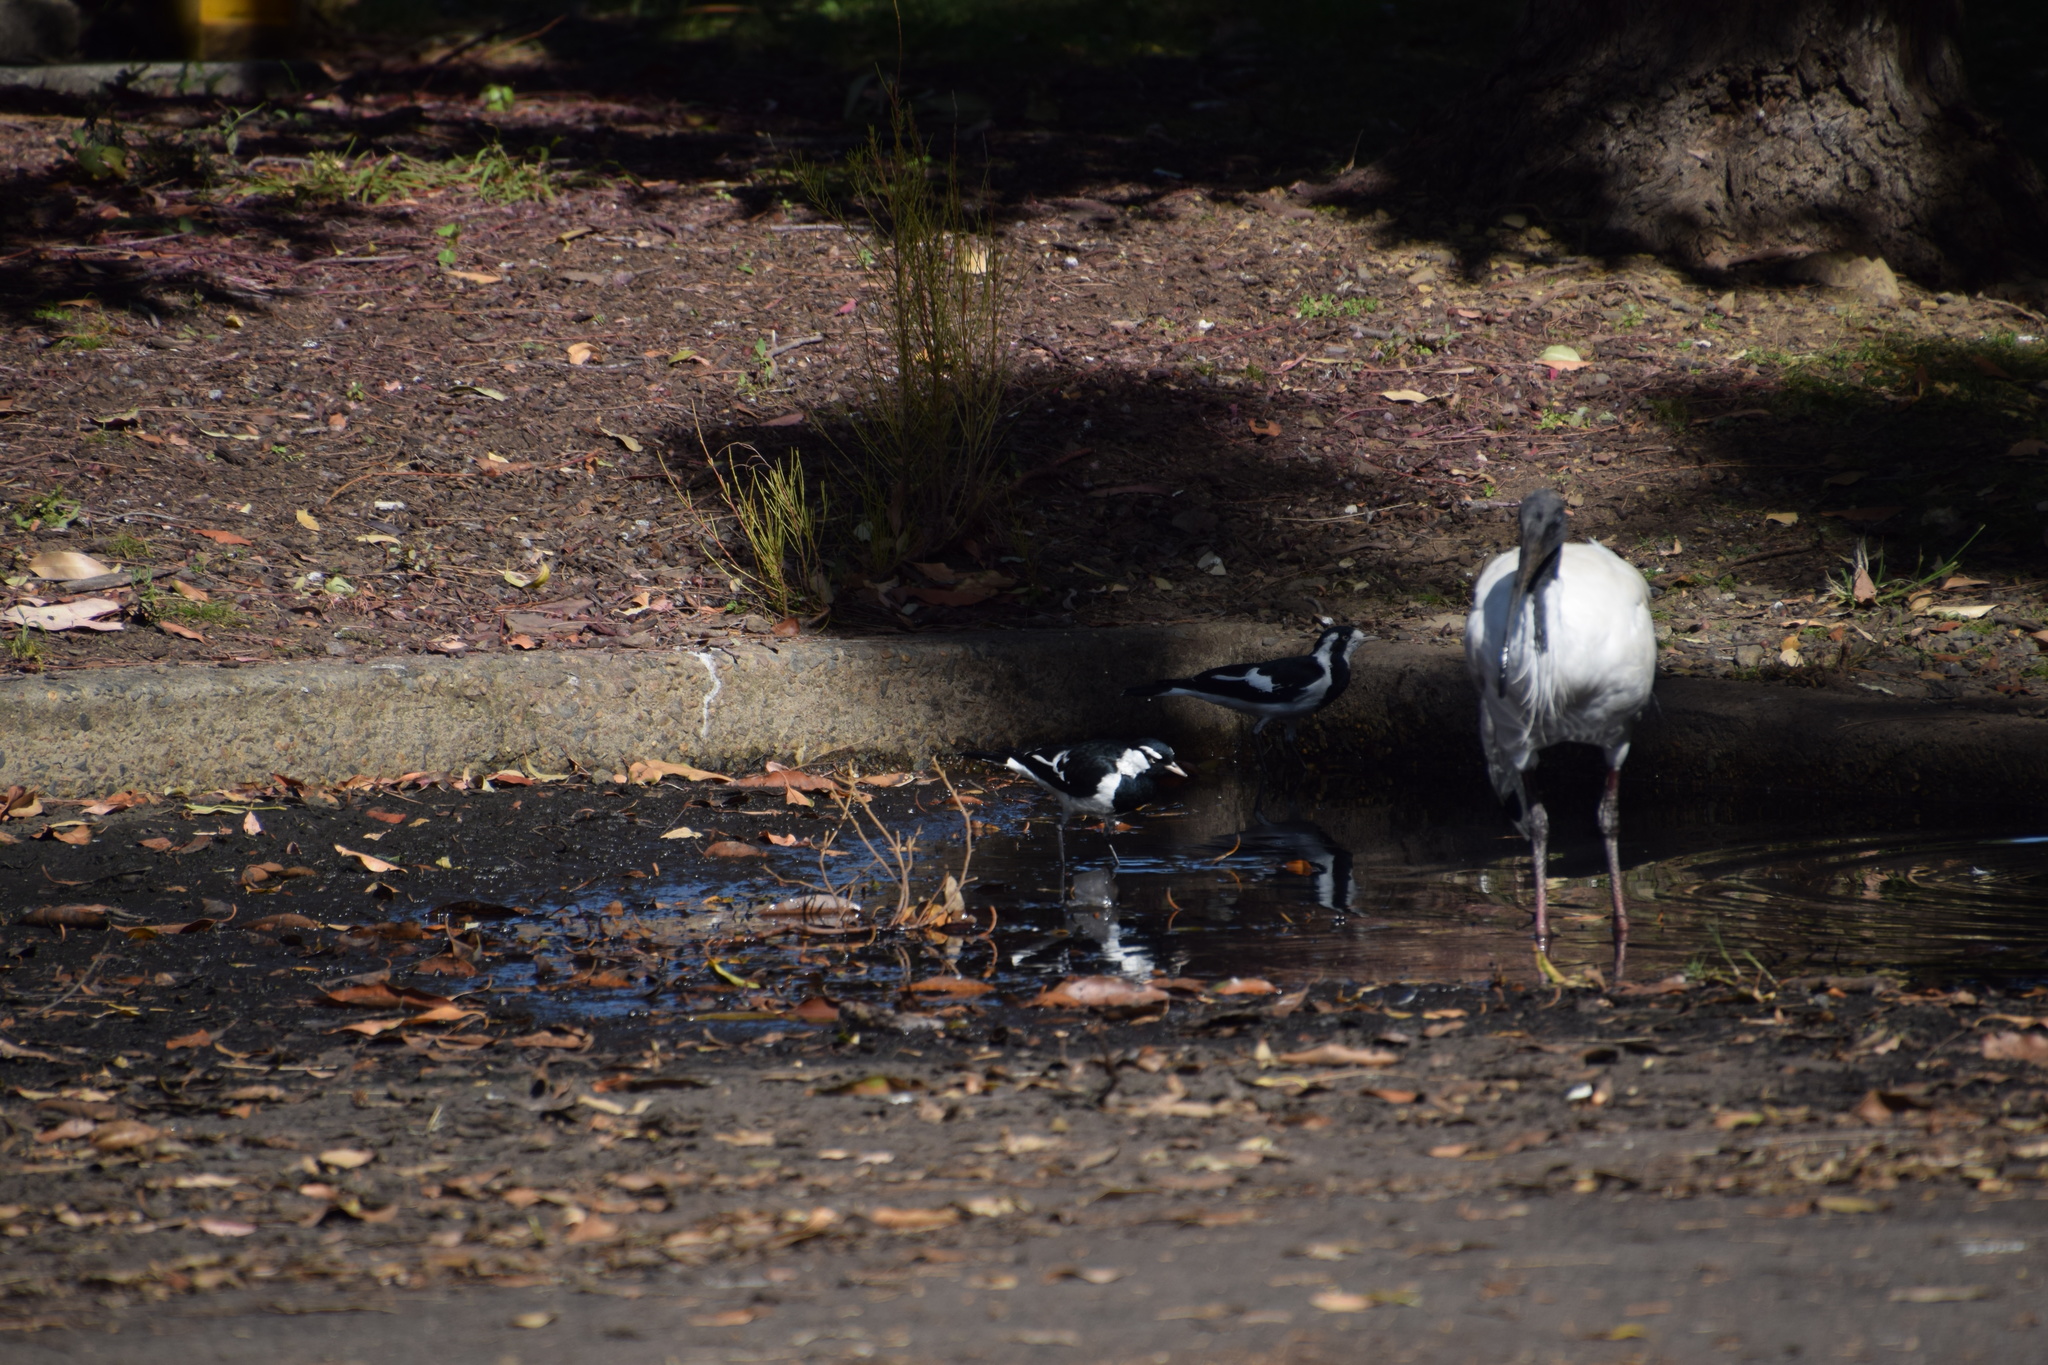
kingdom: Animalia
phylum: Chordata
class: Aves
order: Passeriformes
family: Monarchidae
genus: Grallina
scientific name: Grallina cyanoleuca
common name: Magpie-lark
